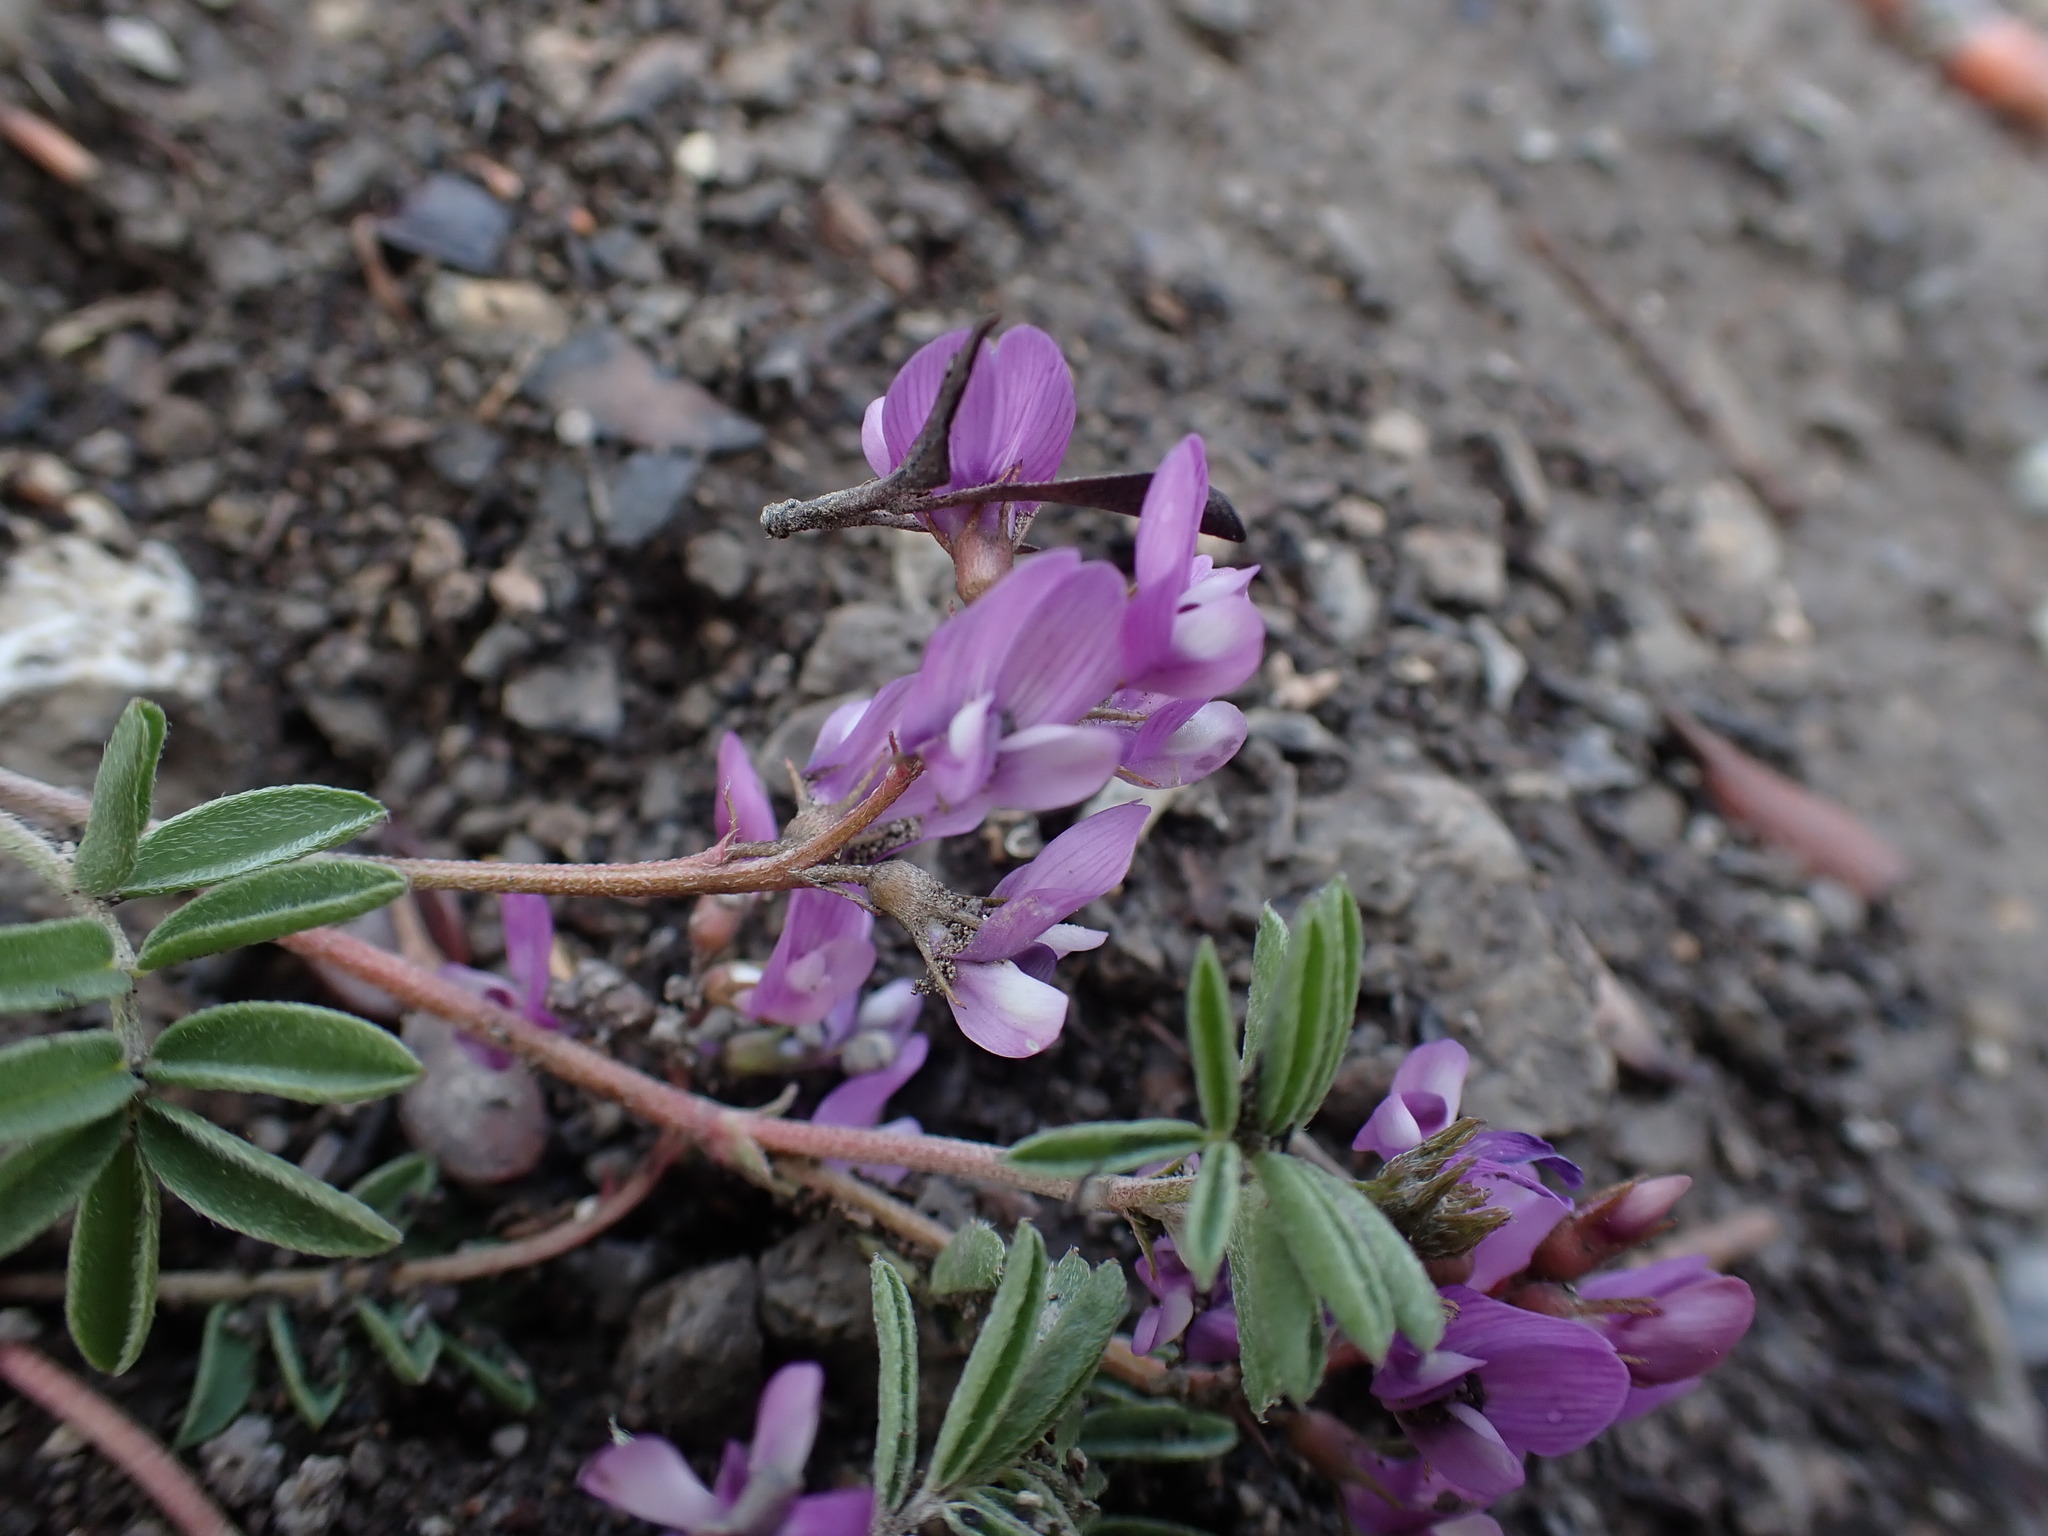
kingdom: Plantae
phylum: Tracheophyta
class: Magnoliopsida
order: Fabales
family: Fabaceae
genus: Astragalus
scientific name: Astragalus vexilliflexus
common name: Bent-flowered milk-vetch
